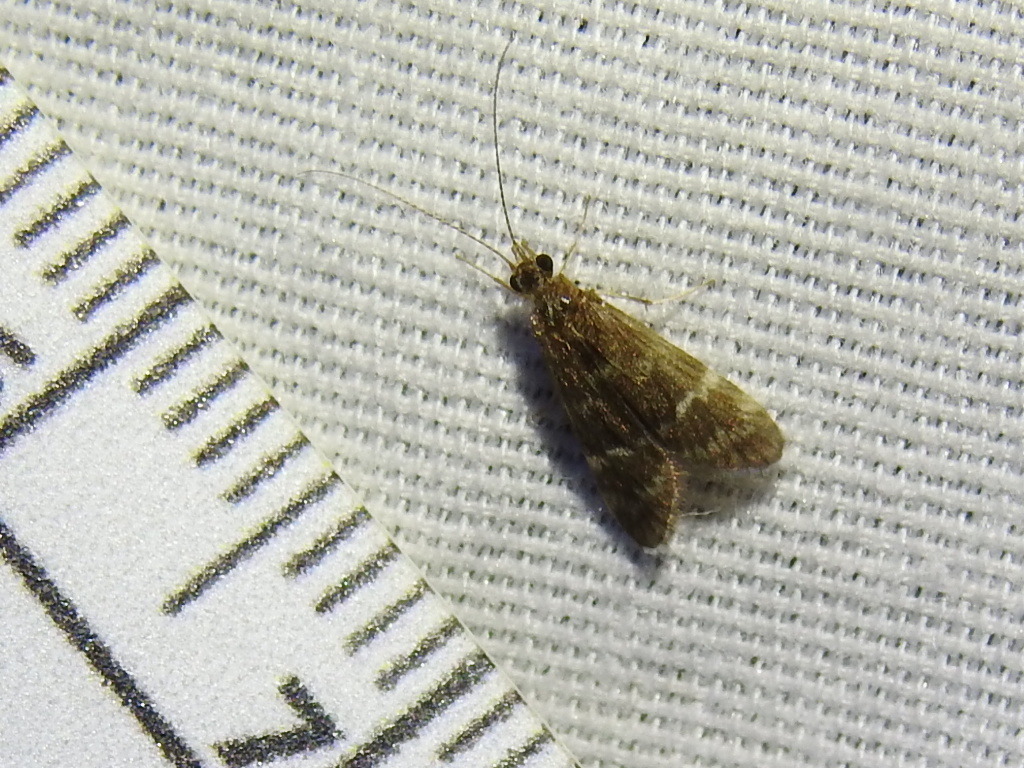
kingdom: Animalia
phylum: Arthropoda
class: Insecta
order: Trichoptera
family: Hydropsychidae
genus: Smicridea
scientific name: Smicridea fasciatella
